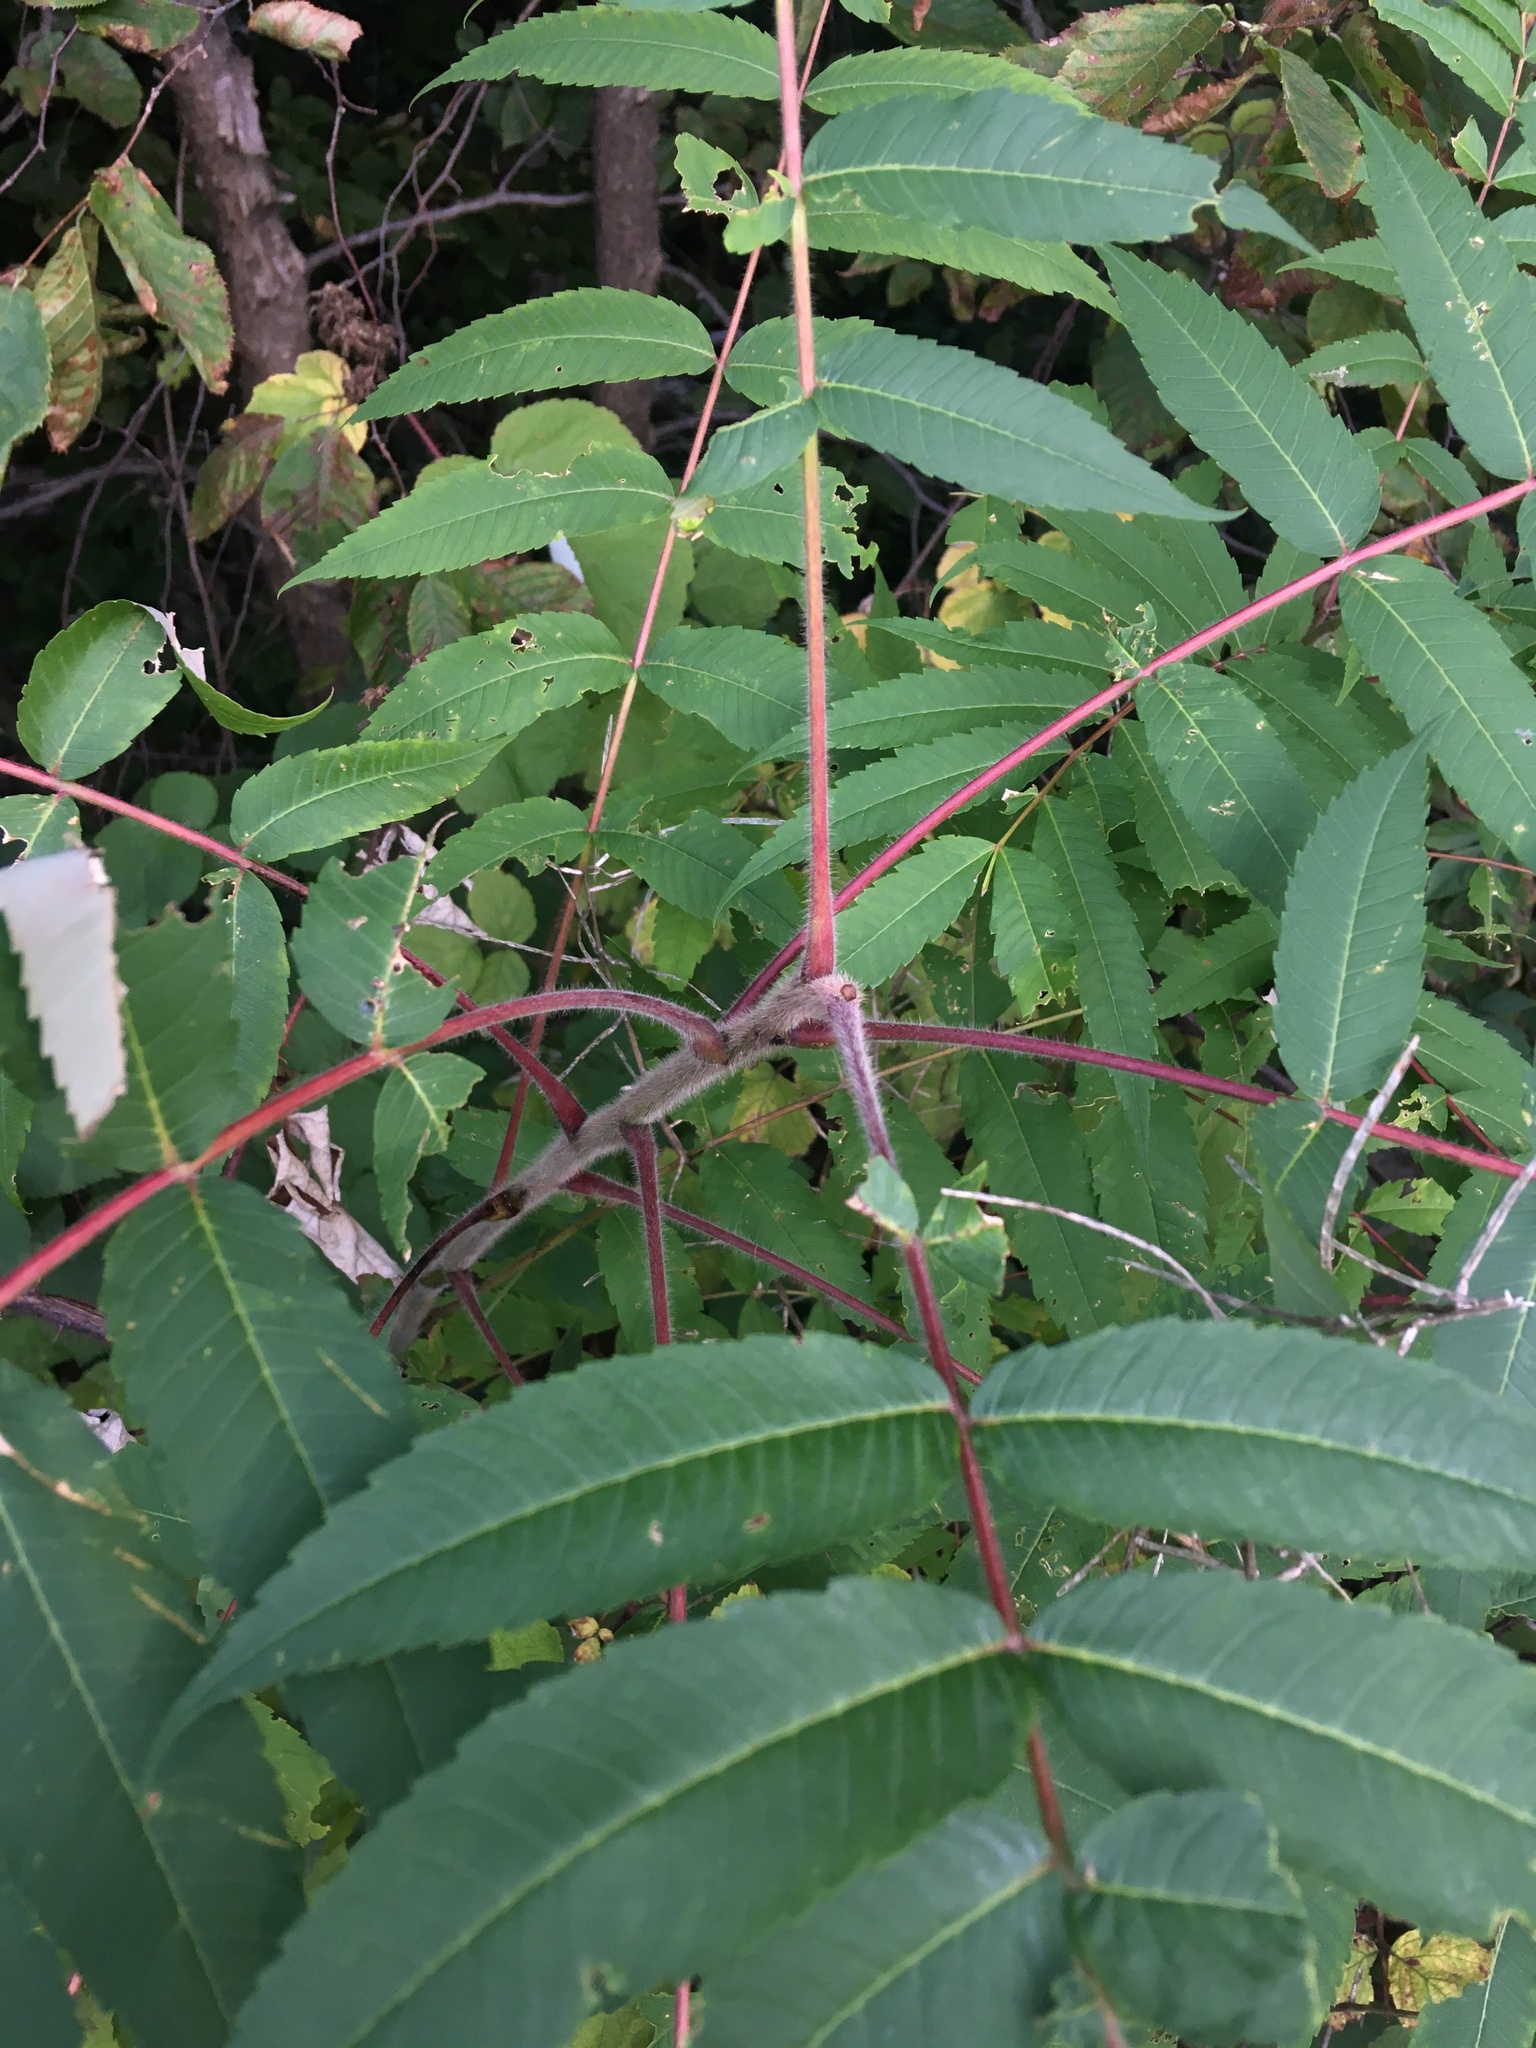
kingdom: Plantae
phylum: Tracheophyta
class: Magnoliopsida
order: Sapindales
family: Anacardiaceae
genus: Rhus
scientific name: Rhus typhina
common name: Staghorn sumac
